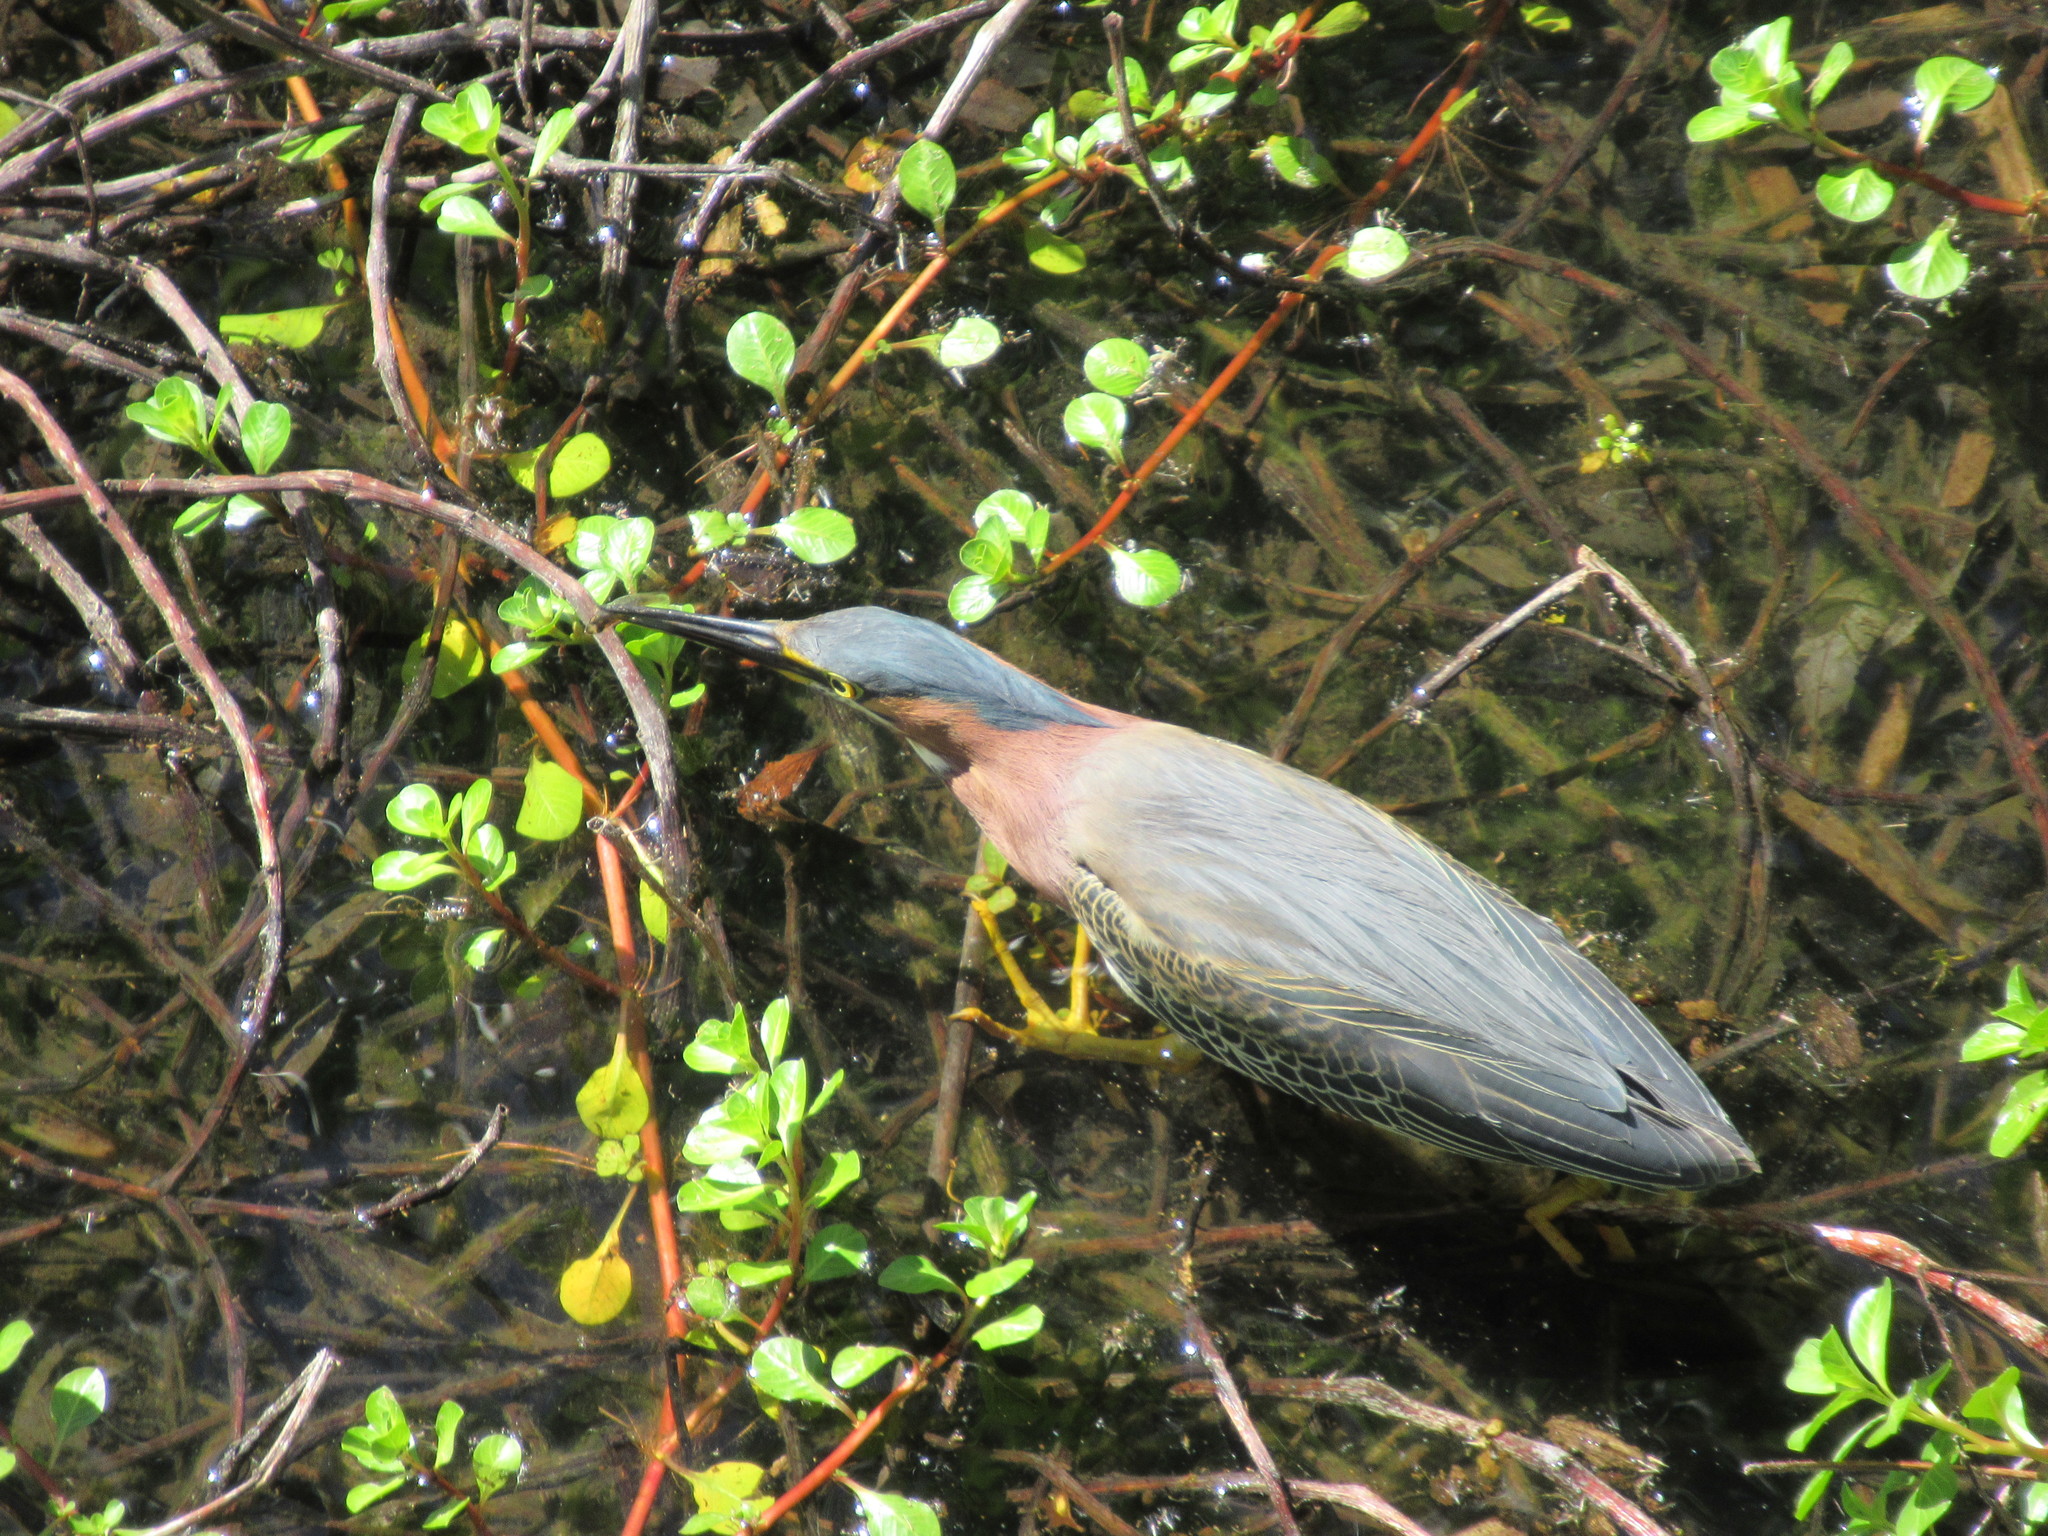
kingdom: Animalia
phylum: Chordata
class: Aves
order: Pelecaniformes
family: Ardeidae
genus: Butorides
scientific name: Butorides virescens
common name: Green heron
